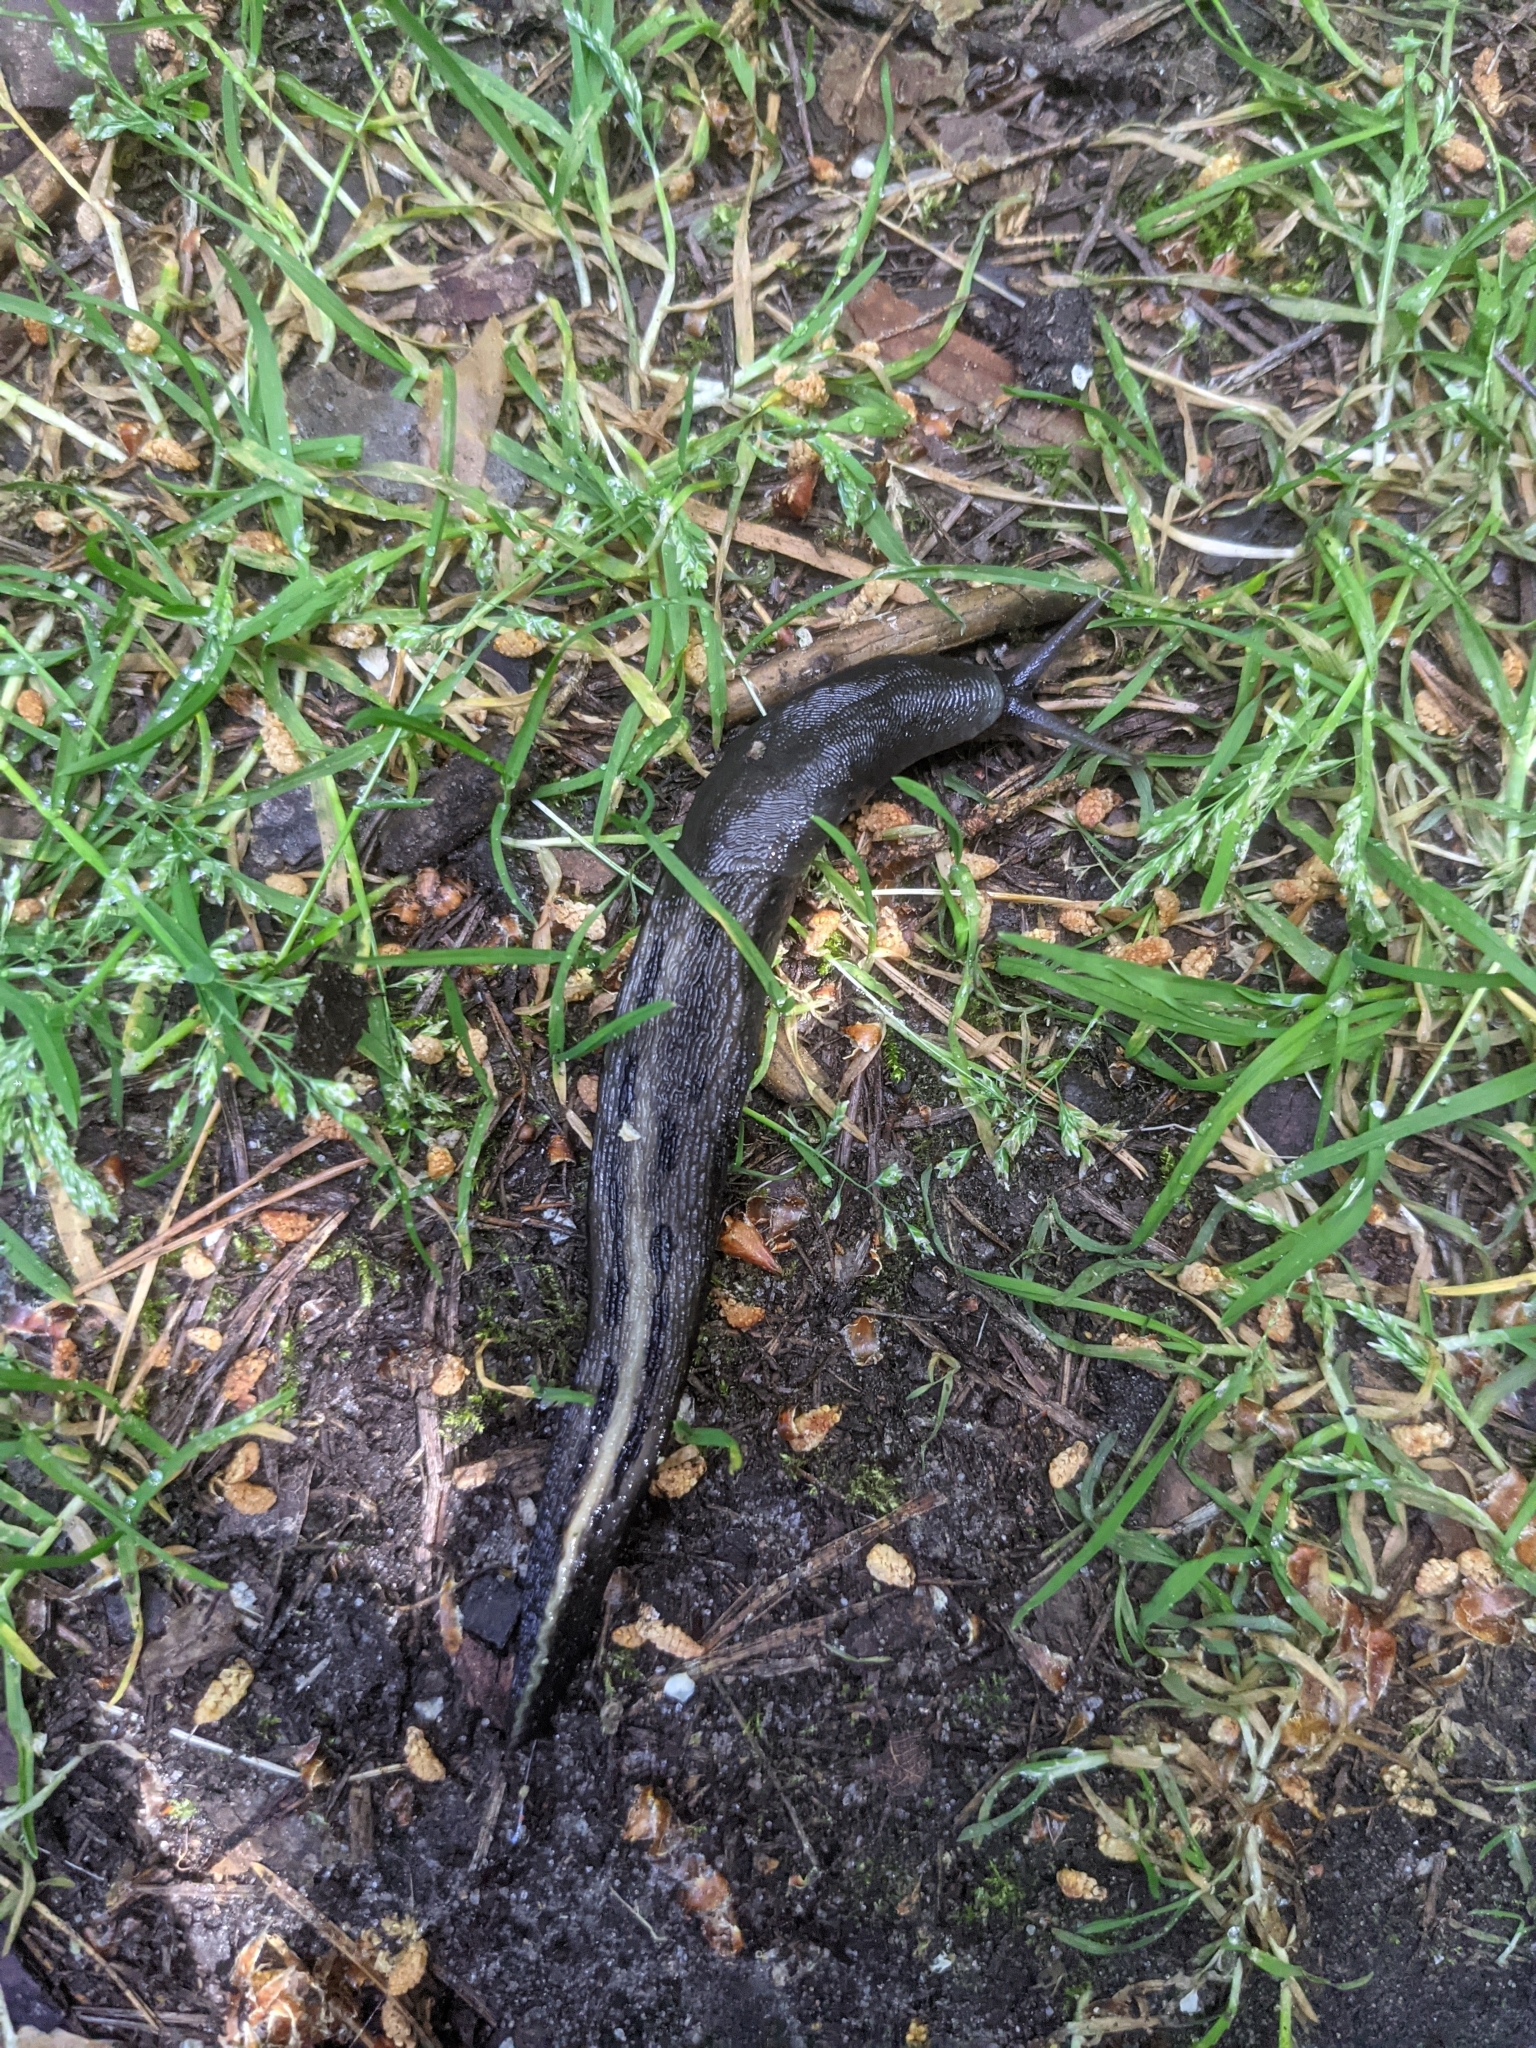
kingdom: Animalia
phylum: Mollusca
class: Gastropoda
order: Stylommatophora
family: Limacidae
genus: Limax
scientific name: Limax cinereoniger
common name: Ash-black slug
